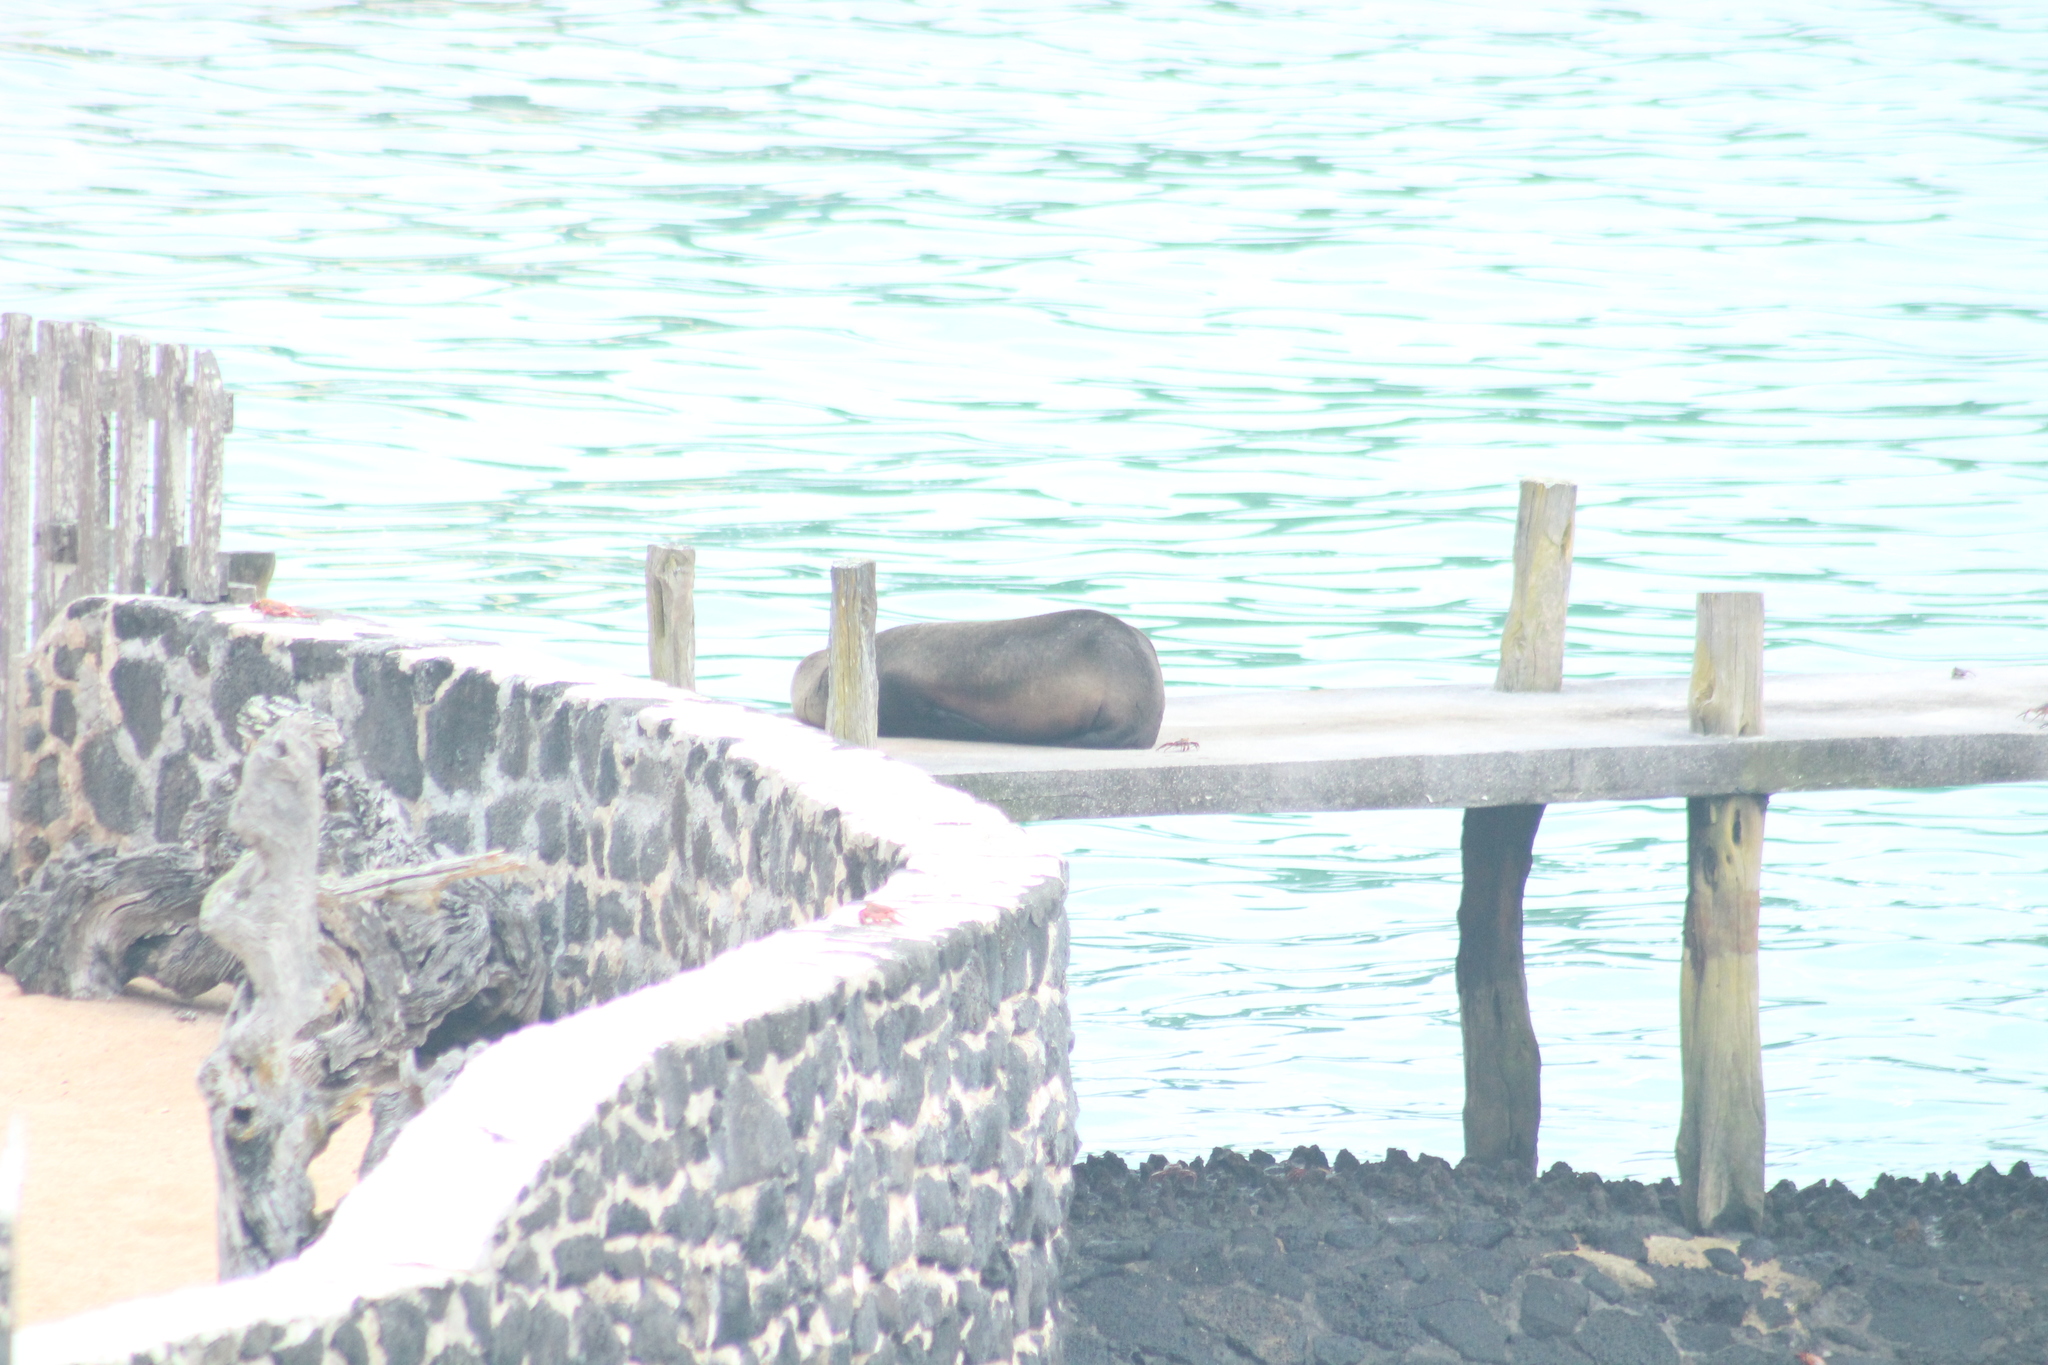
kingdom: Animalia
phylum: Chordata
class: Mammalia
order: Carnivora
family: Otariidae
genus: Zalophus
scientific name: Zalophus wollebaeki
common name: Galapagos sea lion
